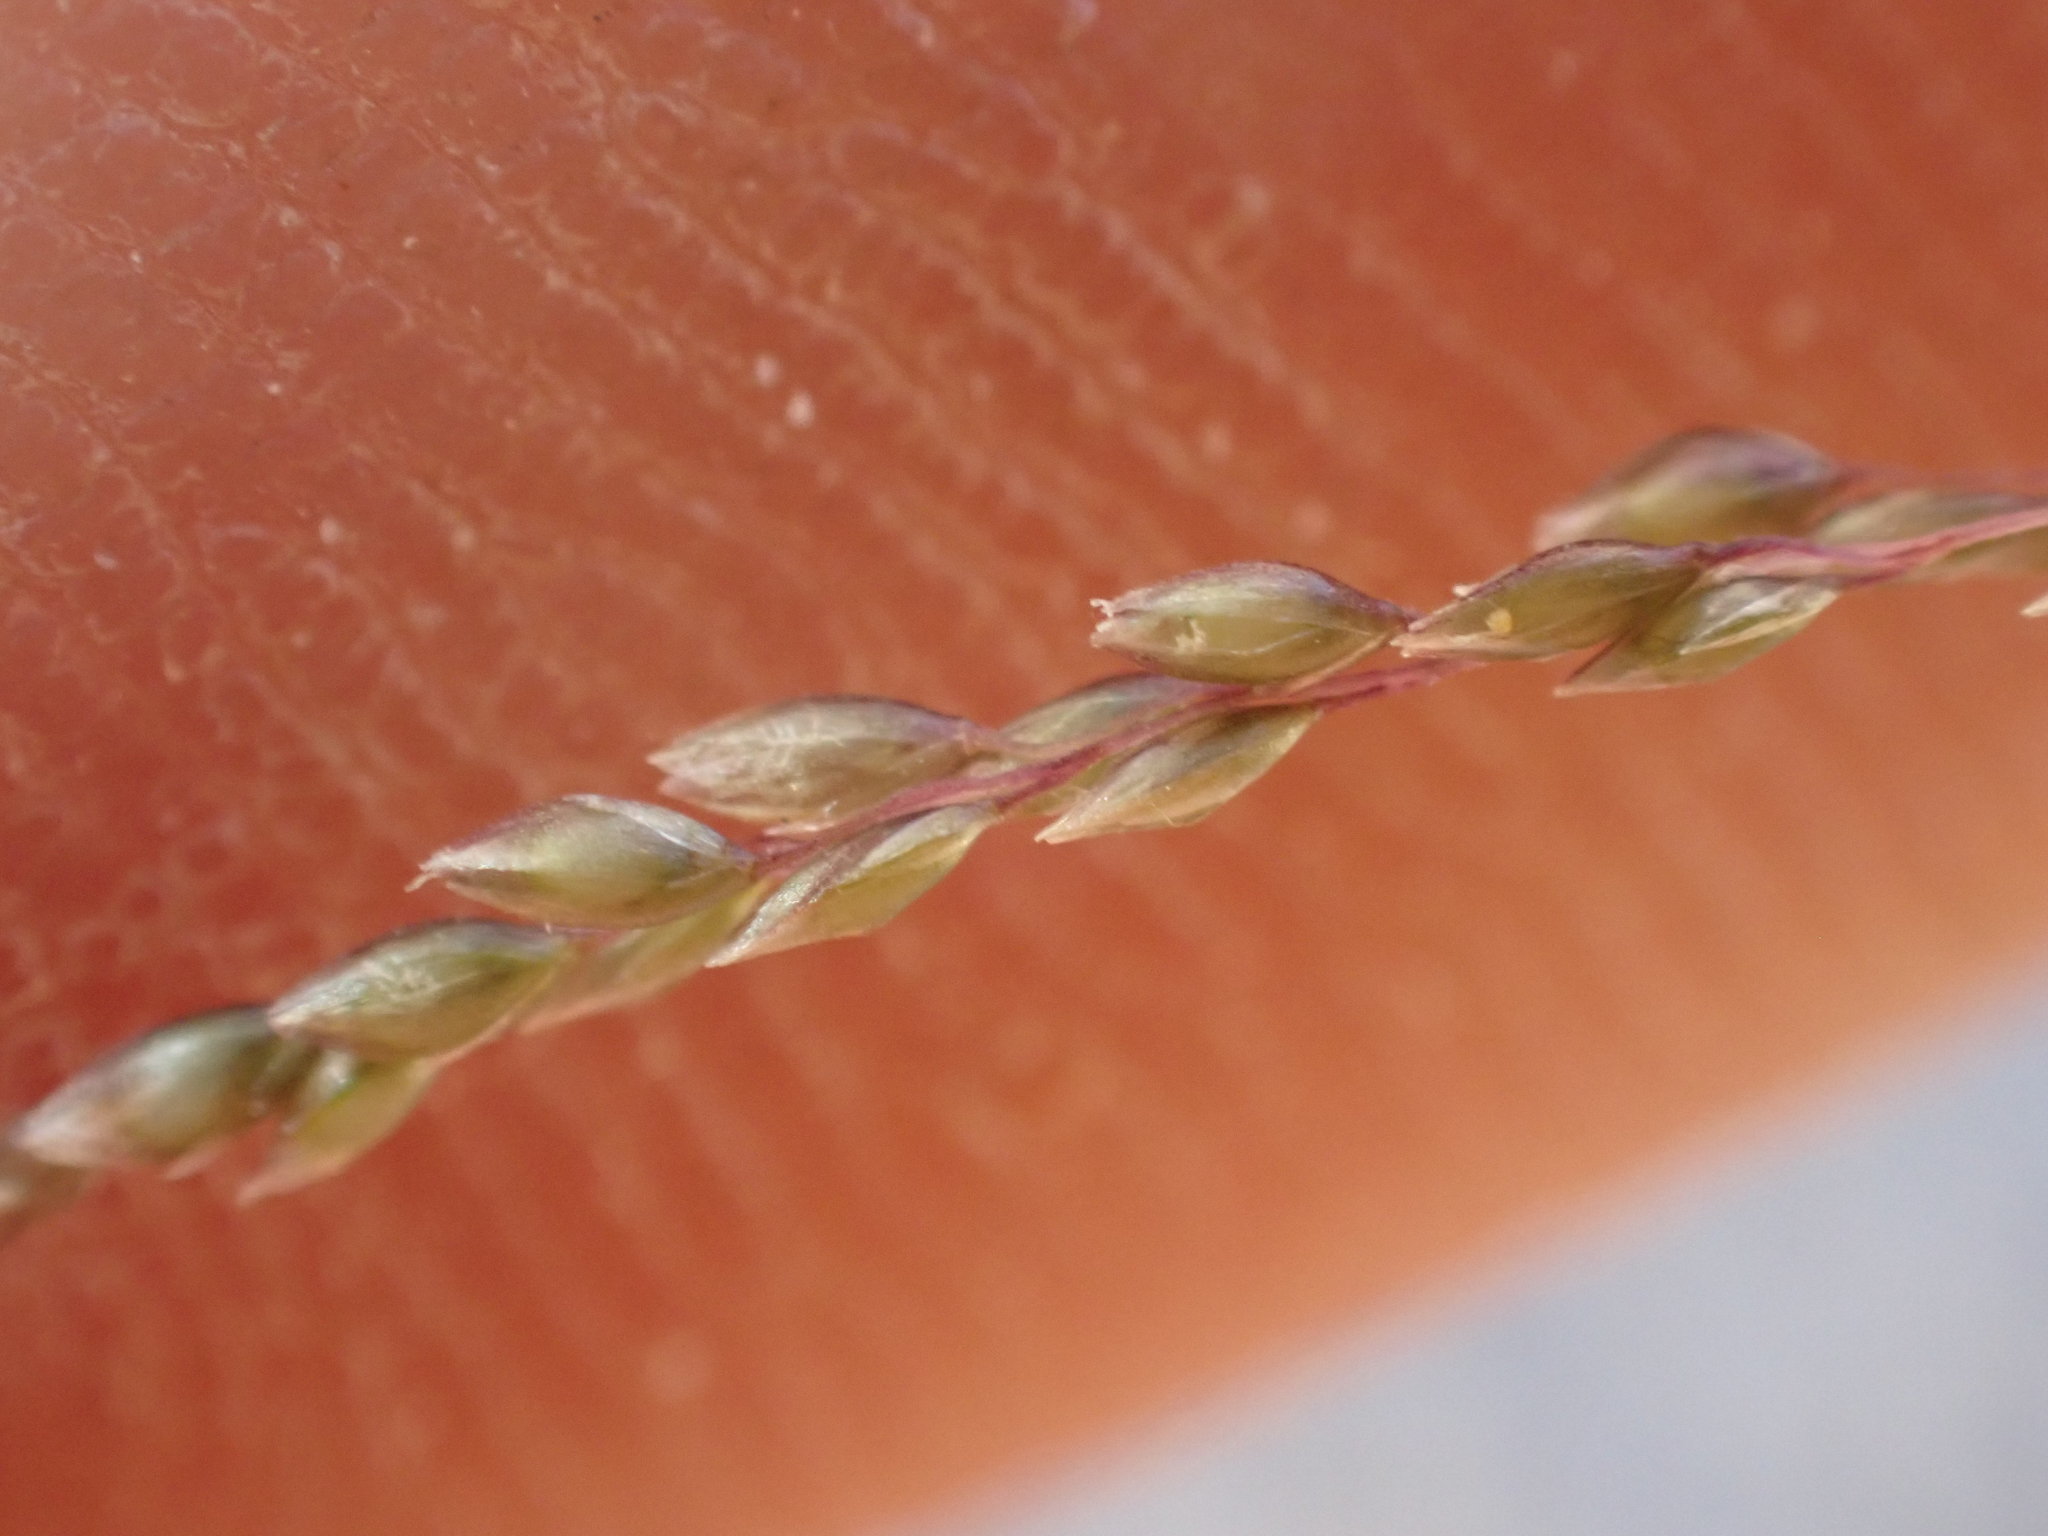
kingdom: Plantae
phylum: Tracheophyta
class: Liliopsida
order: Poales
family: Poaceae
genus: Sporobolus
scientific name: Sporobolus cryptandrus
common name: Sand dropseed
